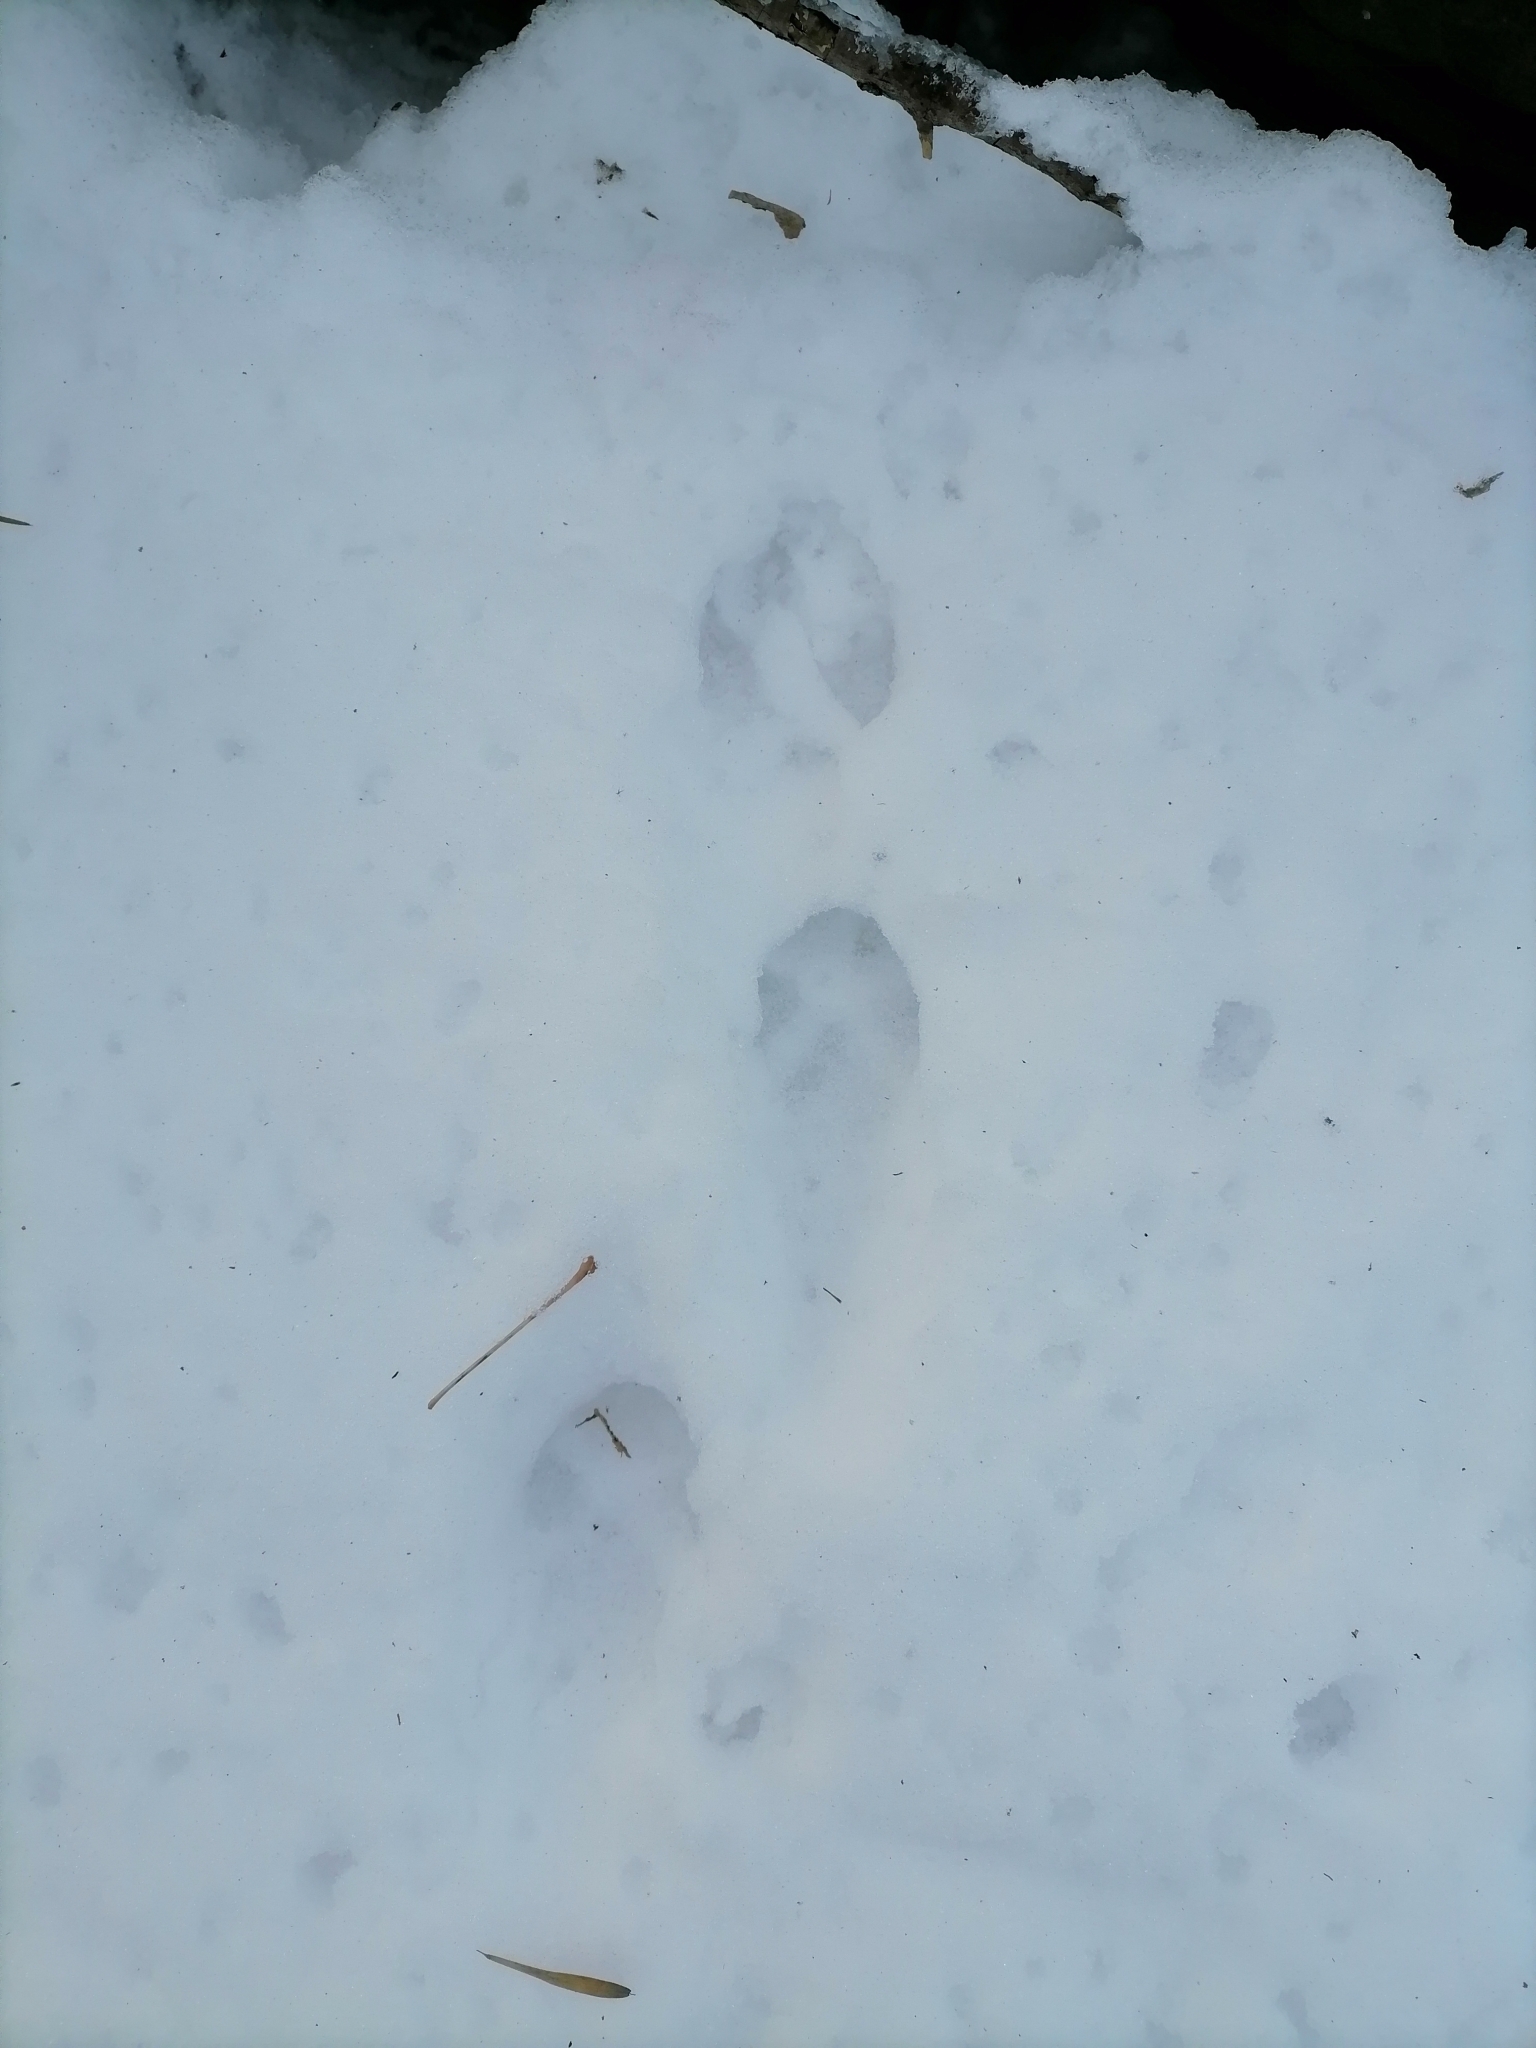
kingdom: Animalia
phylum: Chordata
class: Mammalia
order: Carnivora
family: Canidae
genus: Vulpes
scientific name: Vulpes vulpes
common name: Red fox
